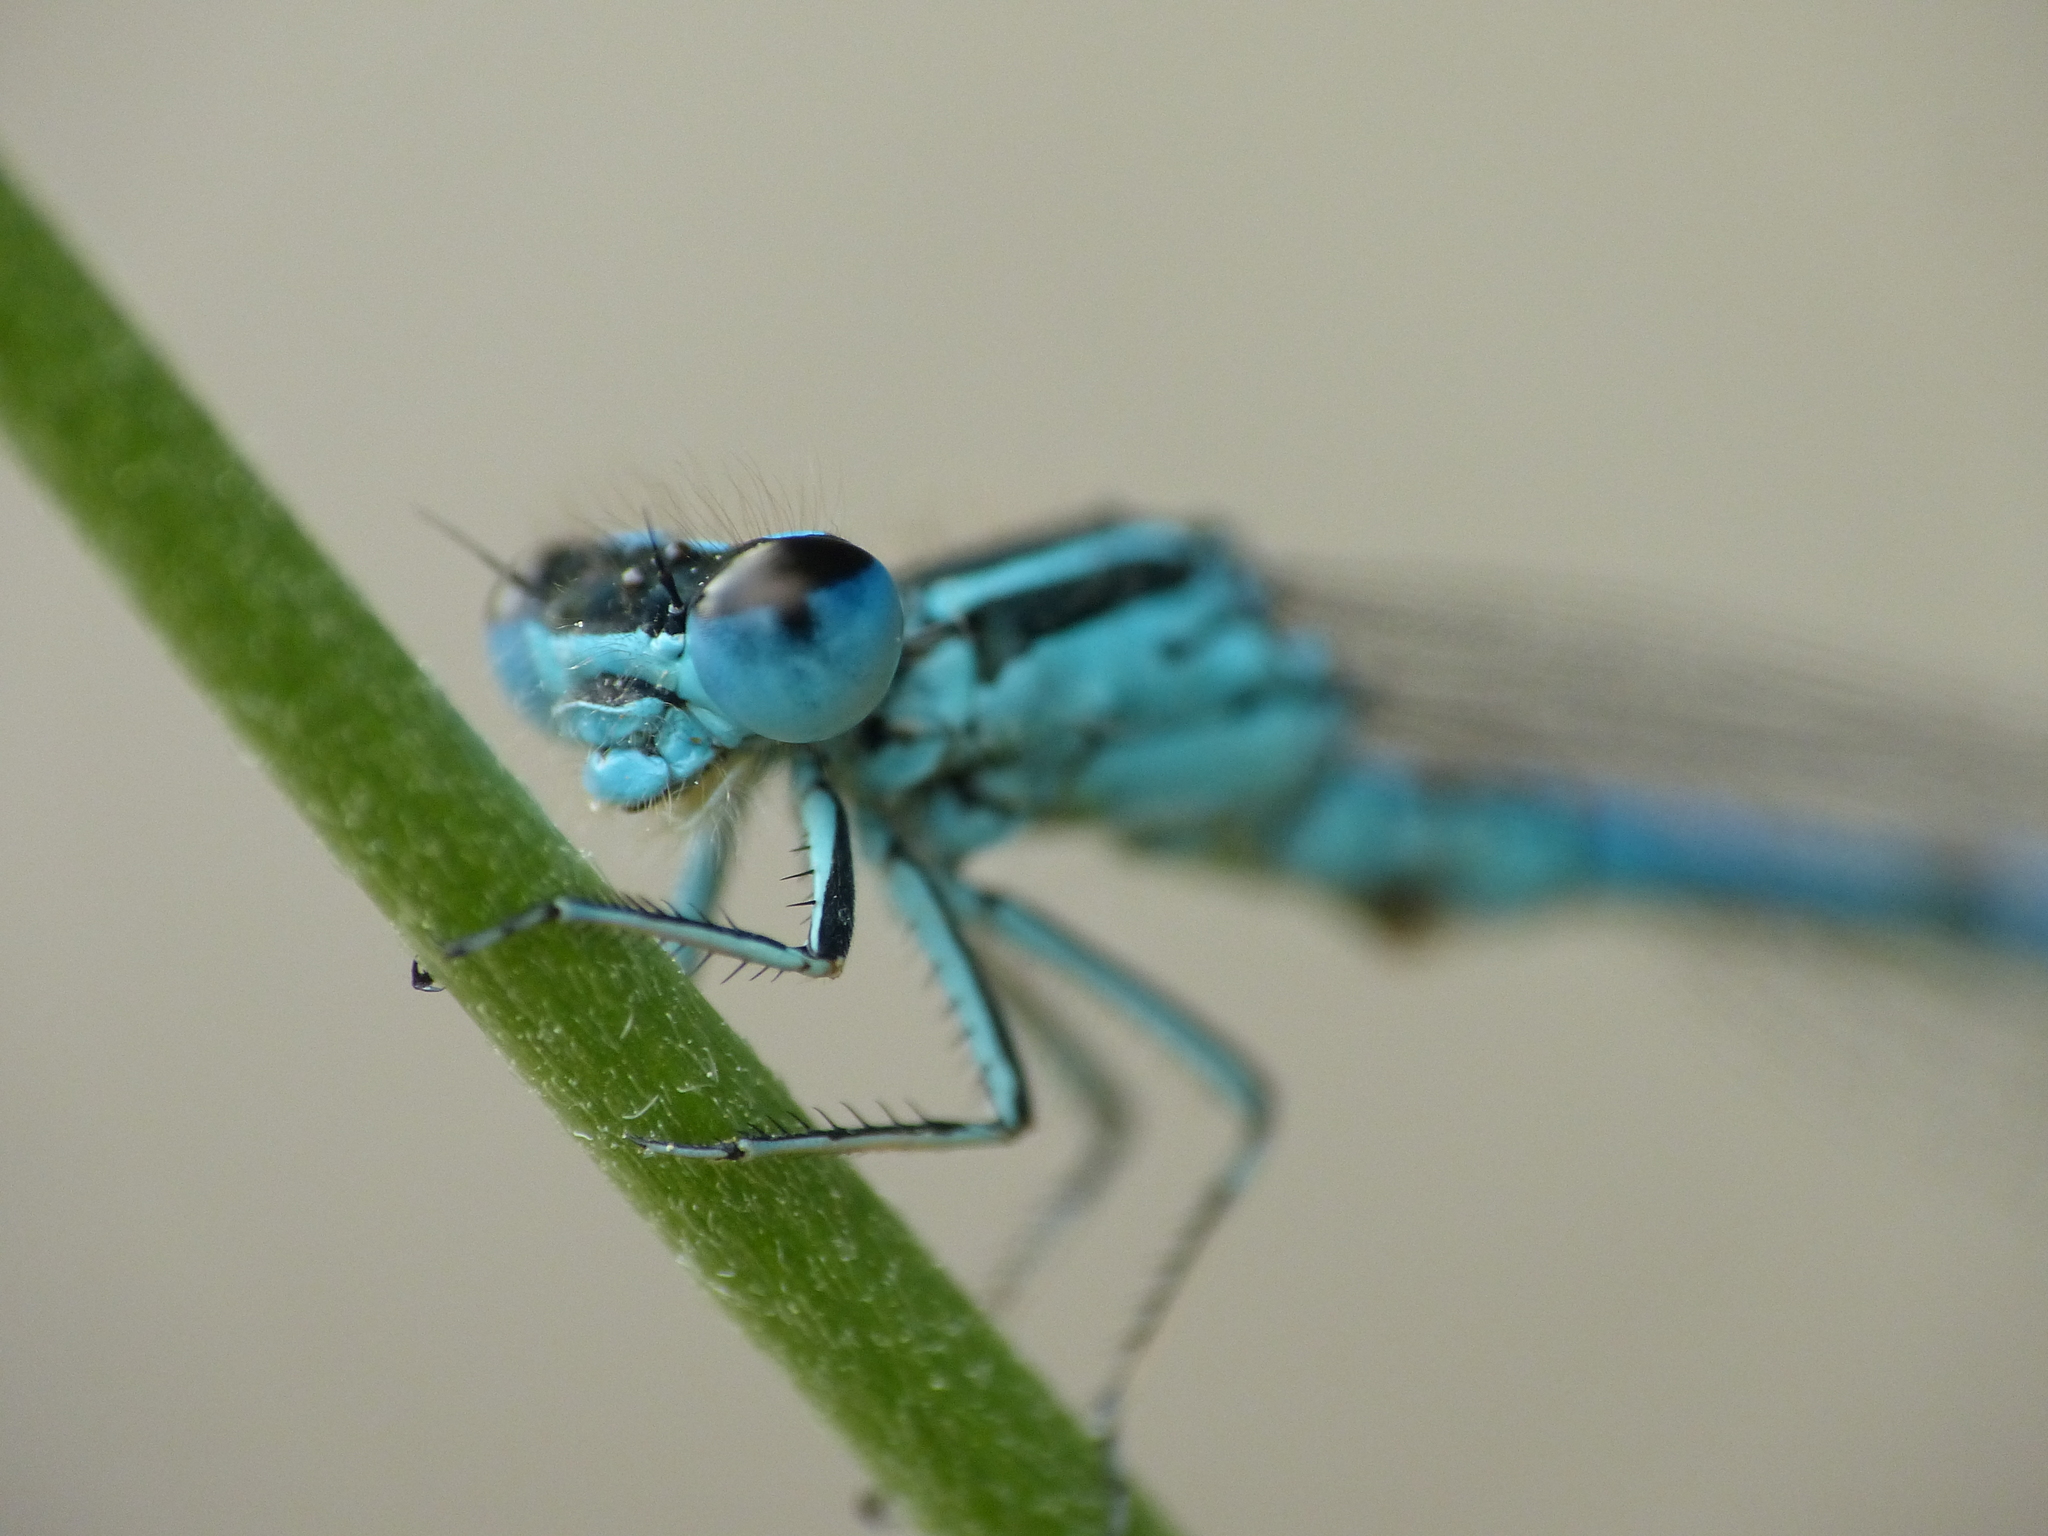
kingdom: Animalia
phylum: Arthropoda
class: Insecta
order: Odonata
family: Coenagrionidae
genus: Coenagrion
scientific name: Coenagrion mercuriale
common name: Southern damselfly
